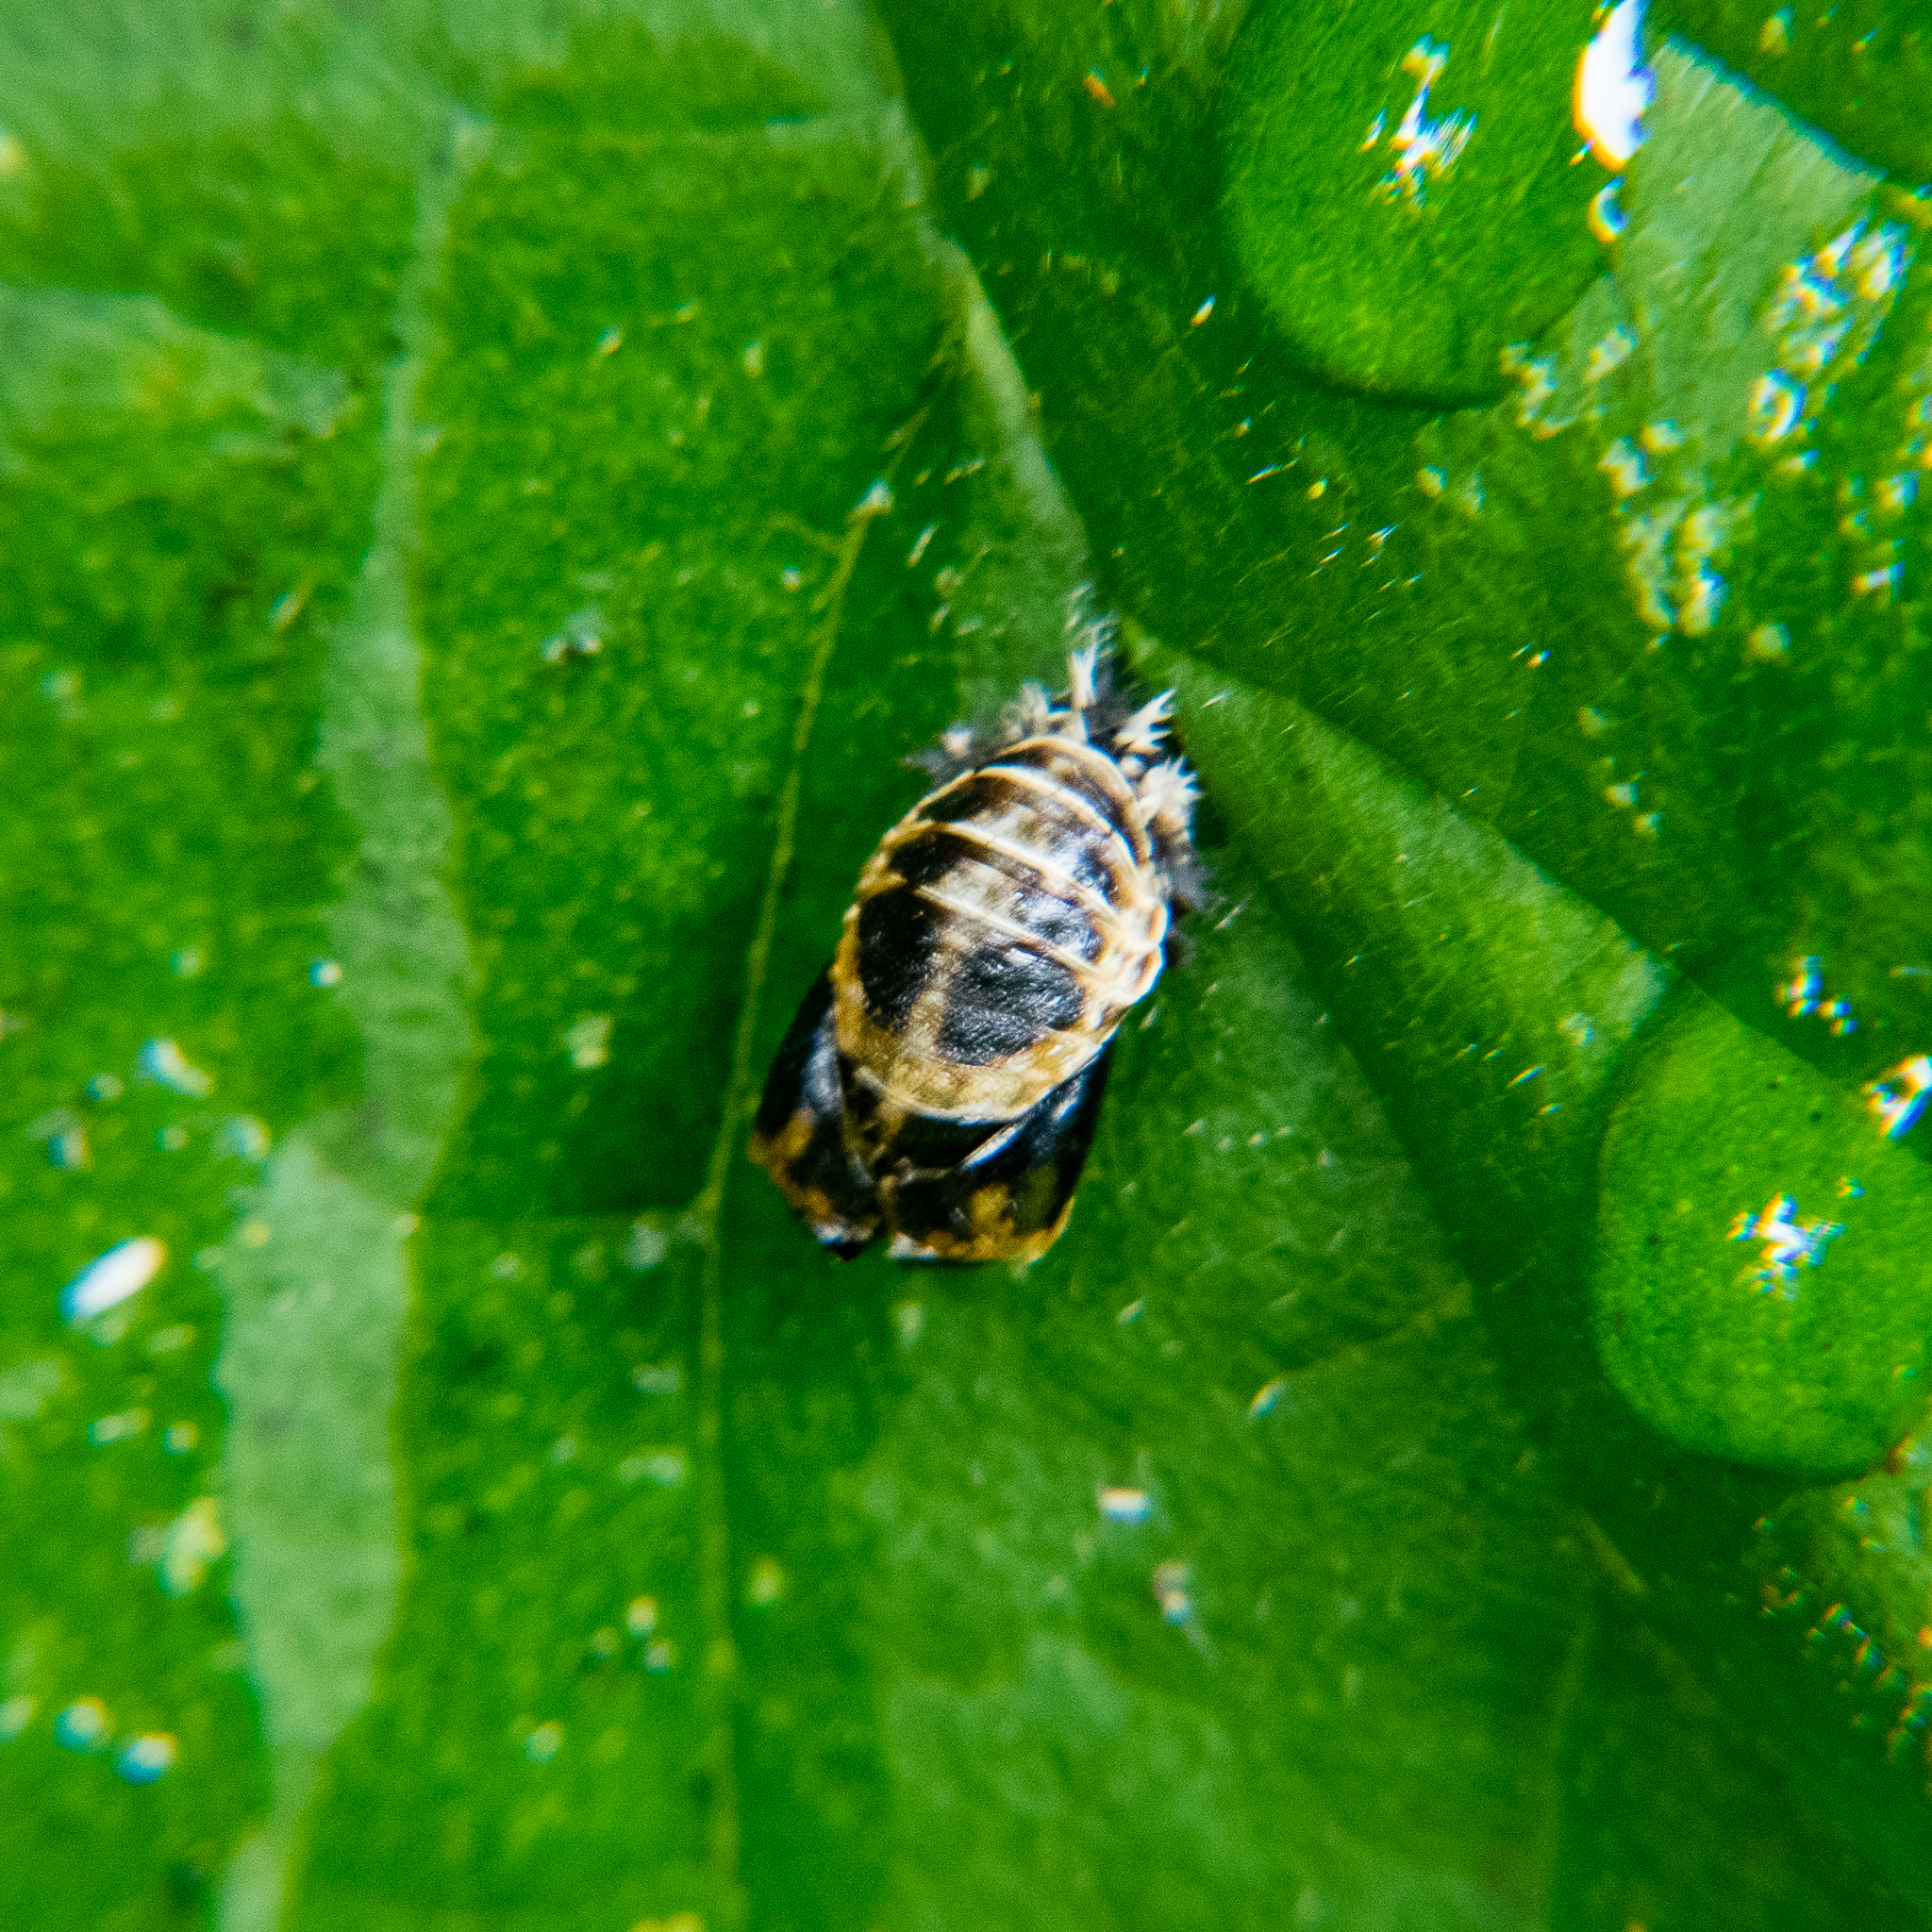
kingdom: Animalia
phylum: Arthropoda
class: Insecta
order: Coleoptera
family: Coccinellidae
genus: Harmonia
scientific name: Harmonia axyridis
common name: Harlequin ladybird
